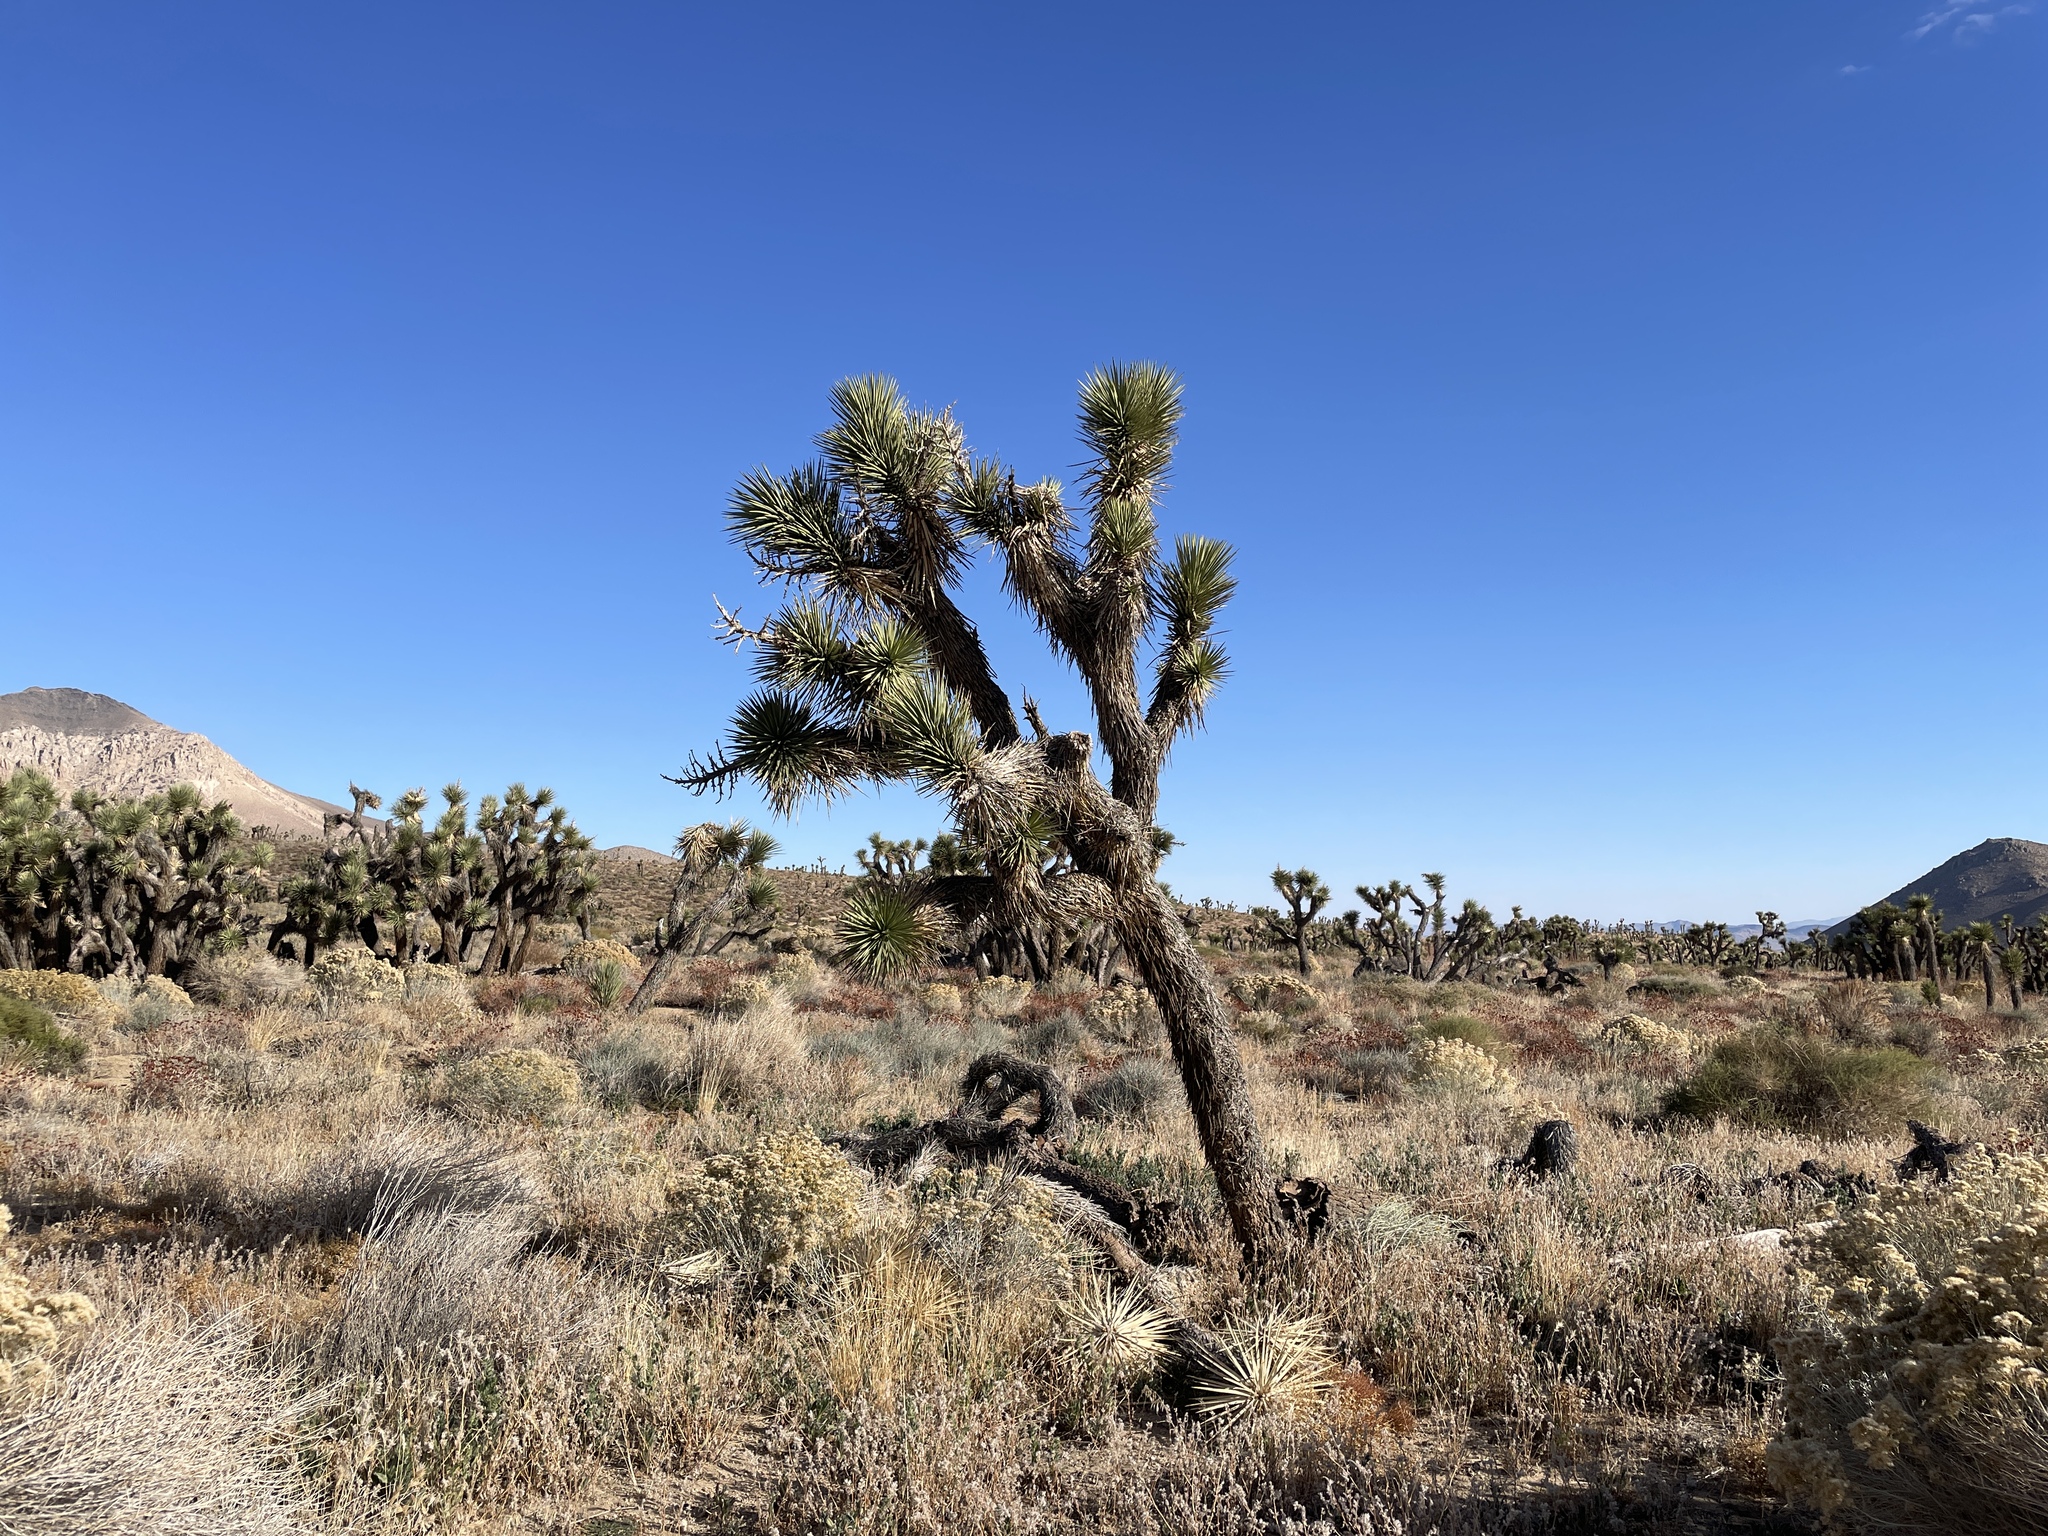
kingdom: Plantae
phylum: Tracheophyta
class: Liliopsida
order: Asparagales
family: Asparagaceae
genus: Yucca
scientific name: Yucca brevifolia
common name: Joshua tree
